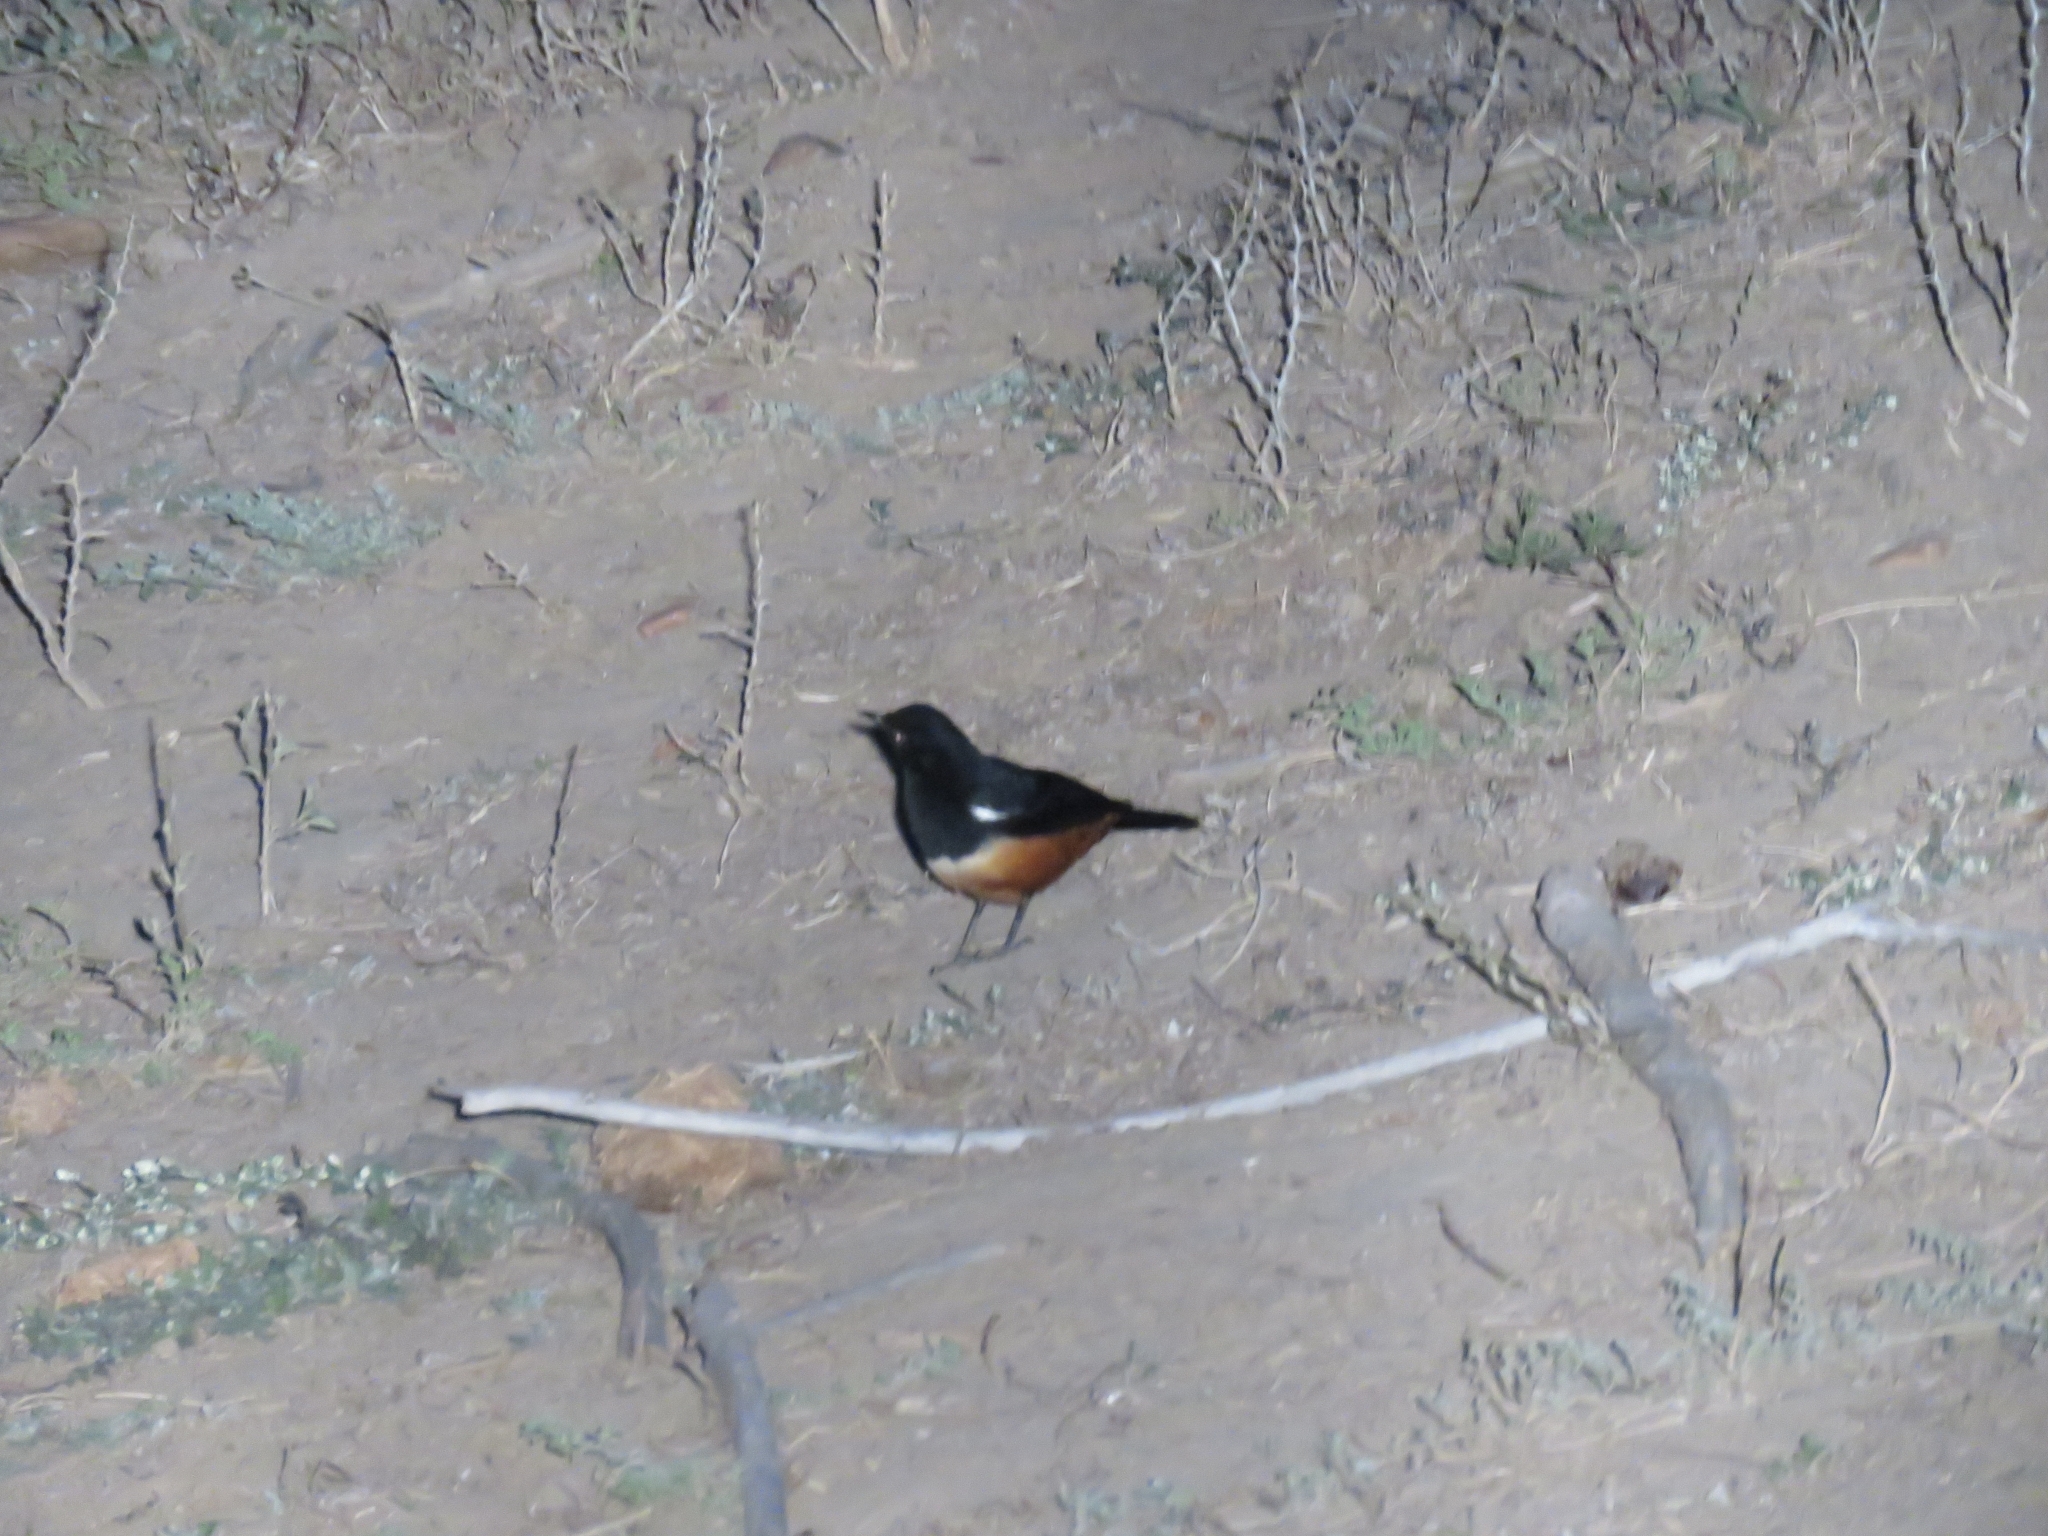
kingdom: Animalia
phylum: Chordata
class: Aves
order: Passeriformes
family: Muscicapidae
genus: Thamnolaea
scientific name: Thamnolaea cinnamomeiventris
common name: Mocking cliff chat
